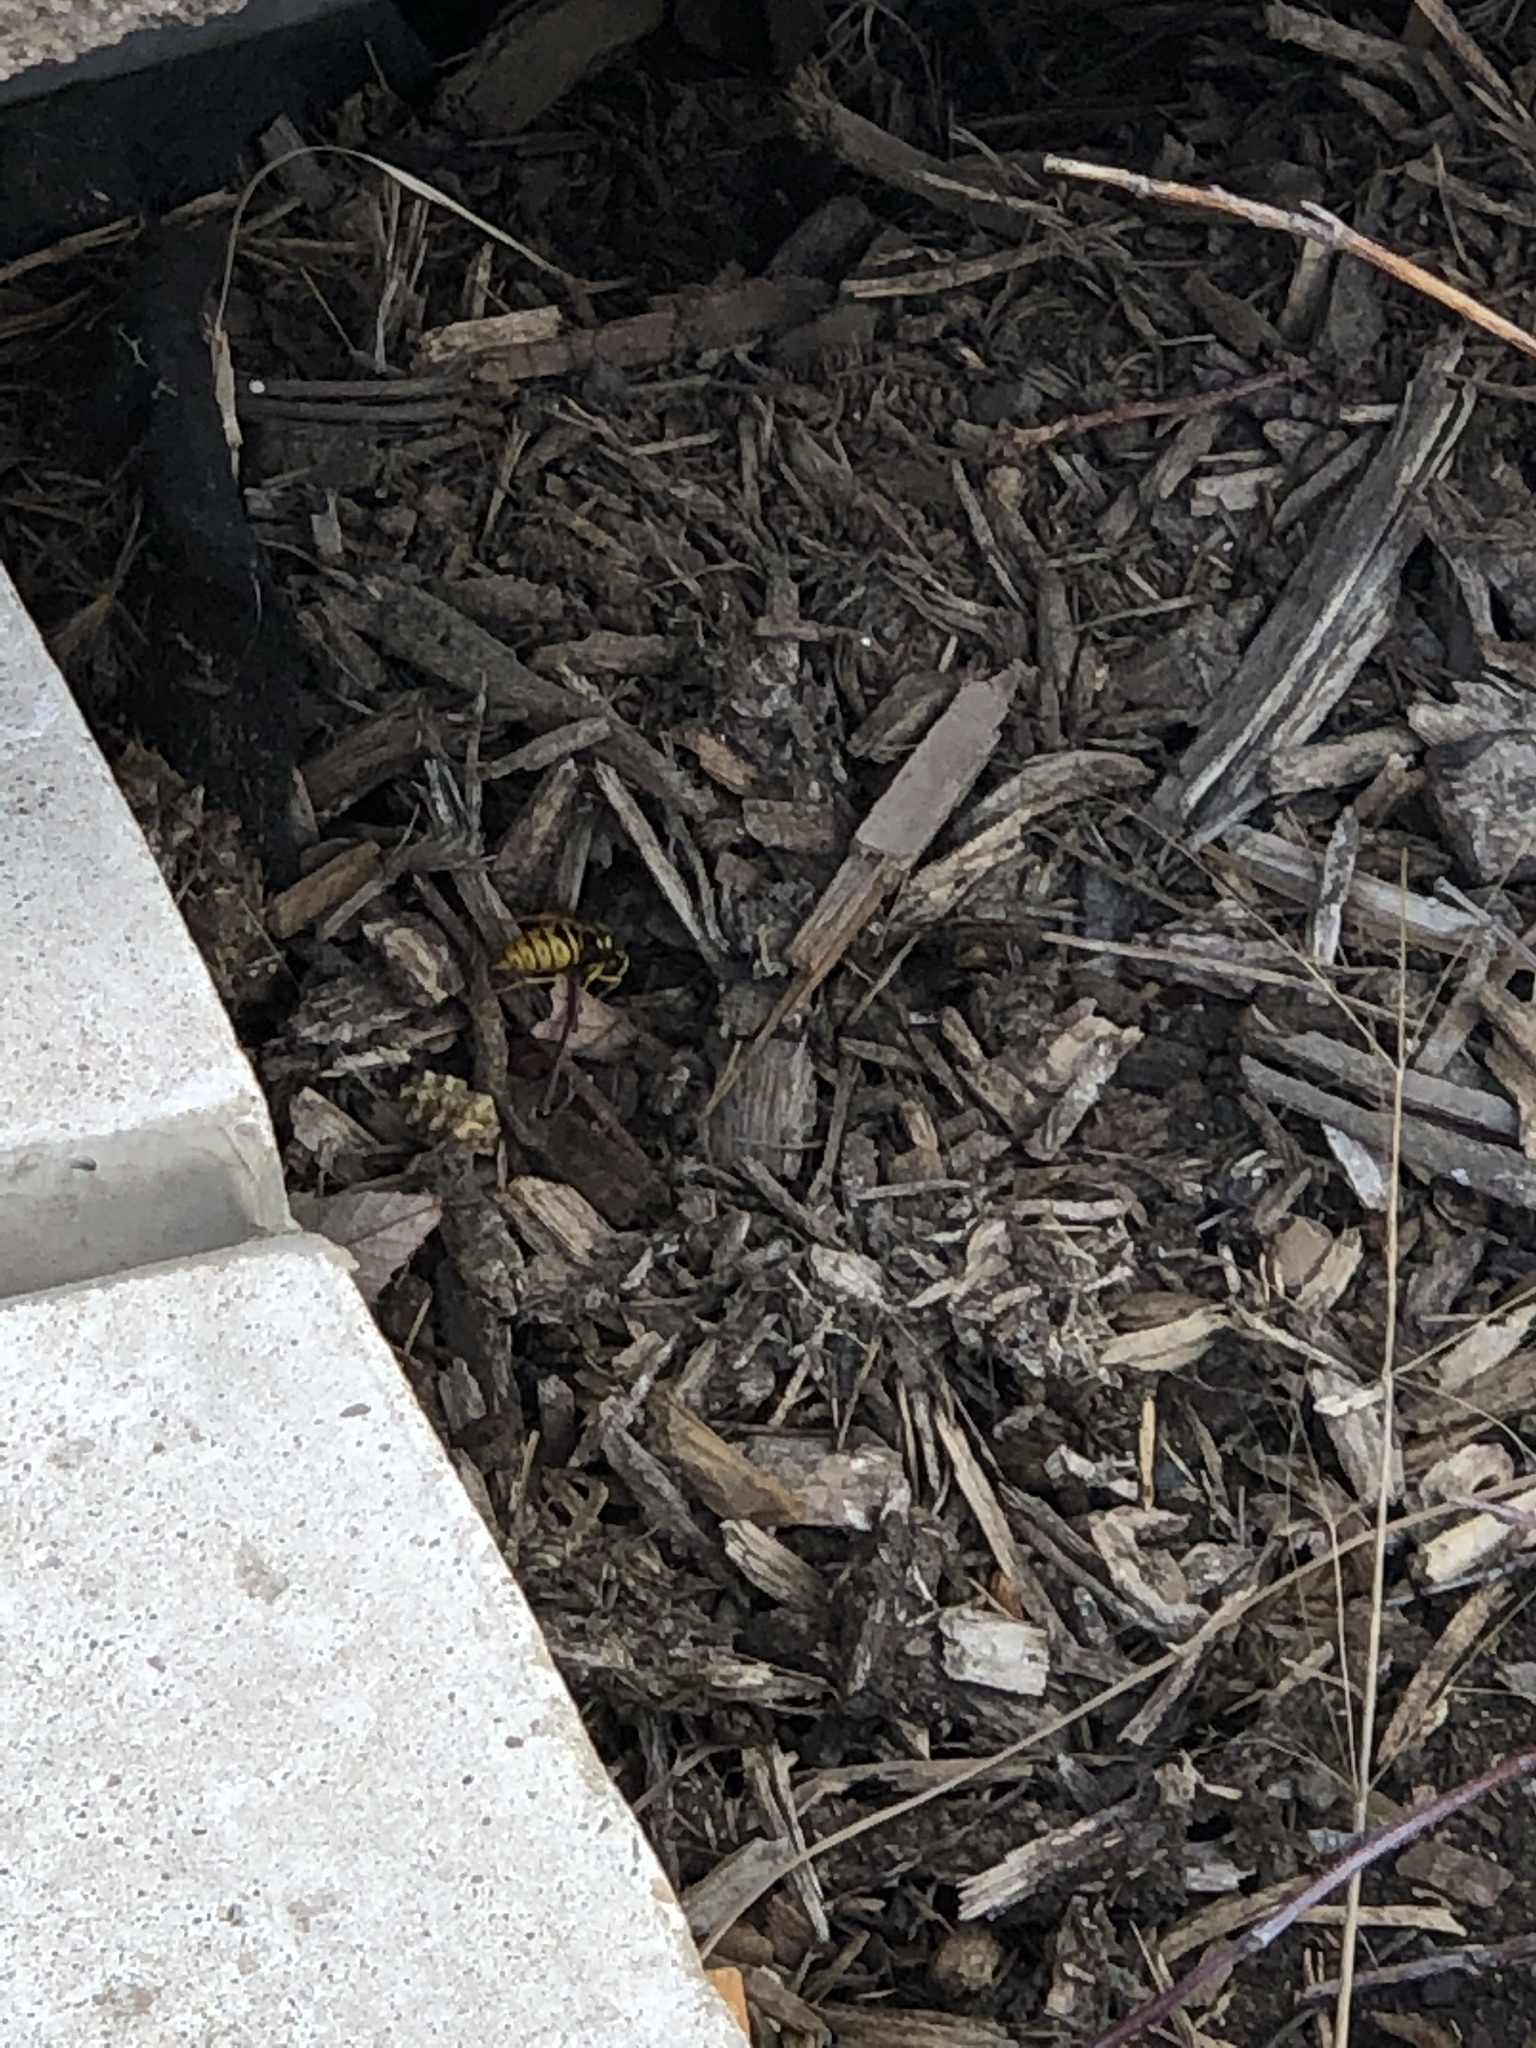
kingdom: Animalia
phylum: Arthropoda
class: Insecta
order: Hymenoptera
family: Vespidae
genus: Vespula
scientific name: Vespula maculifrons
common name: Eastern yellowjacket
